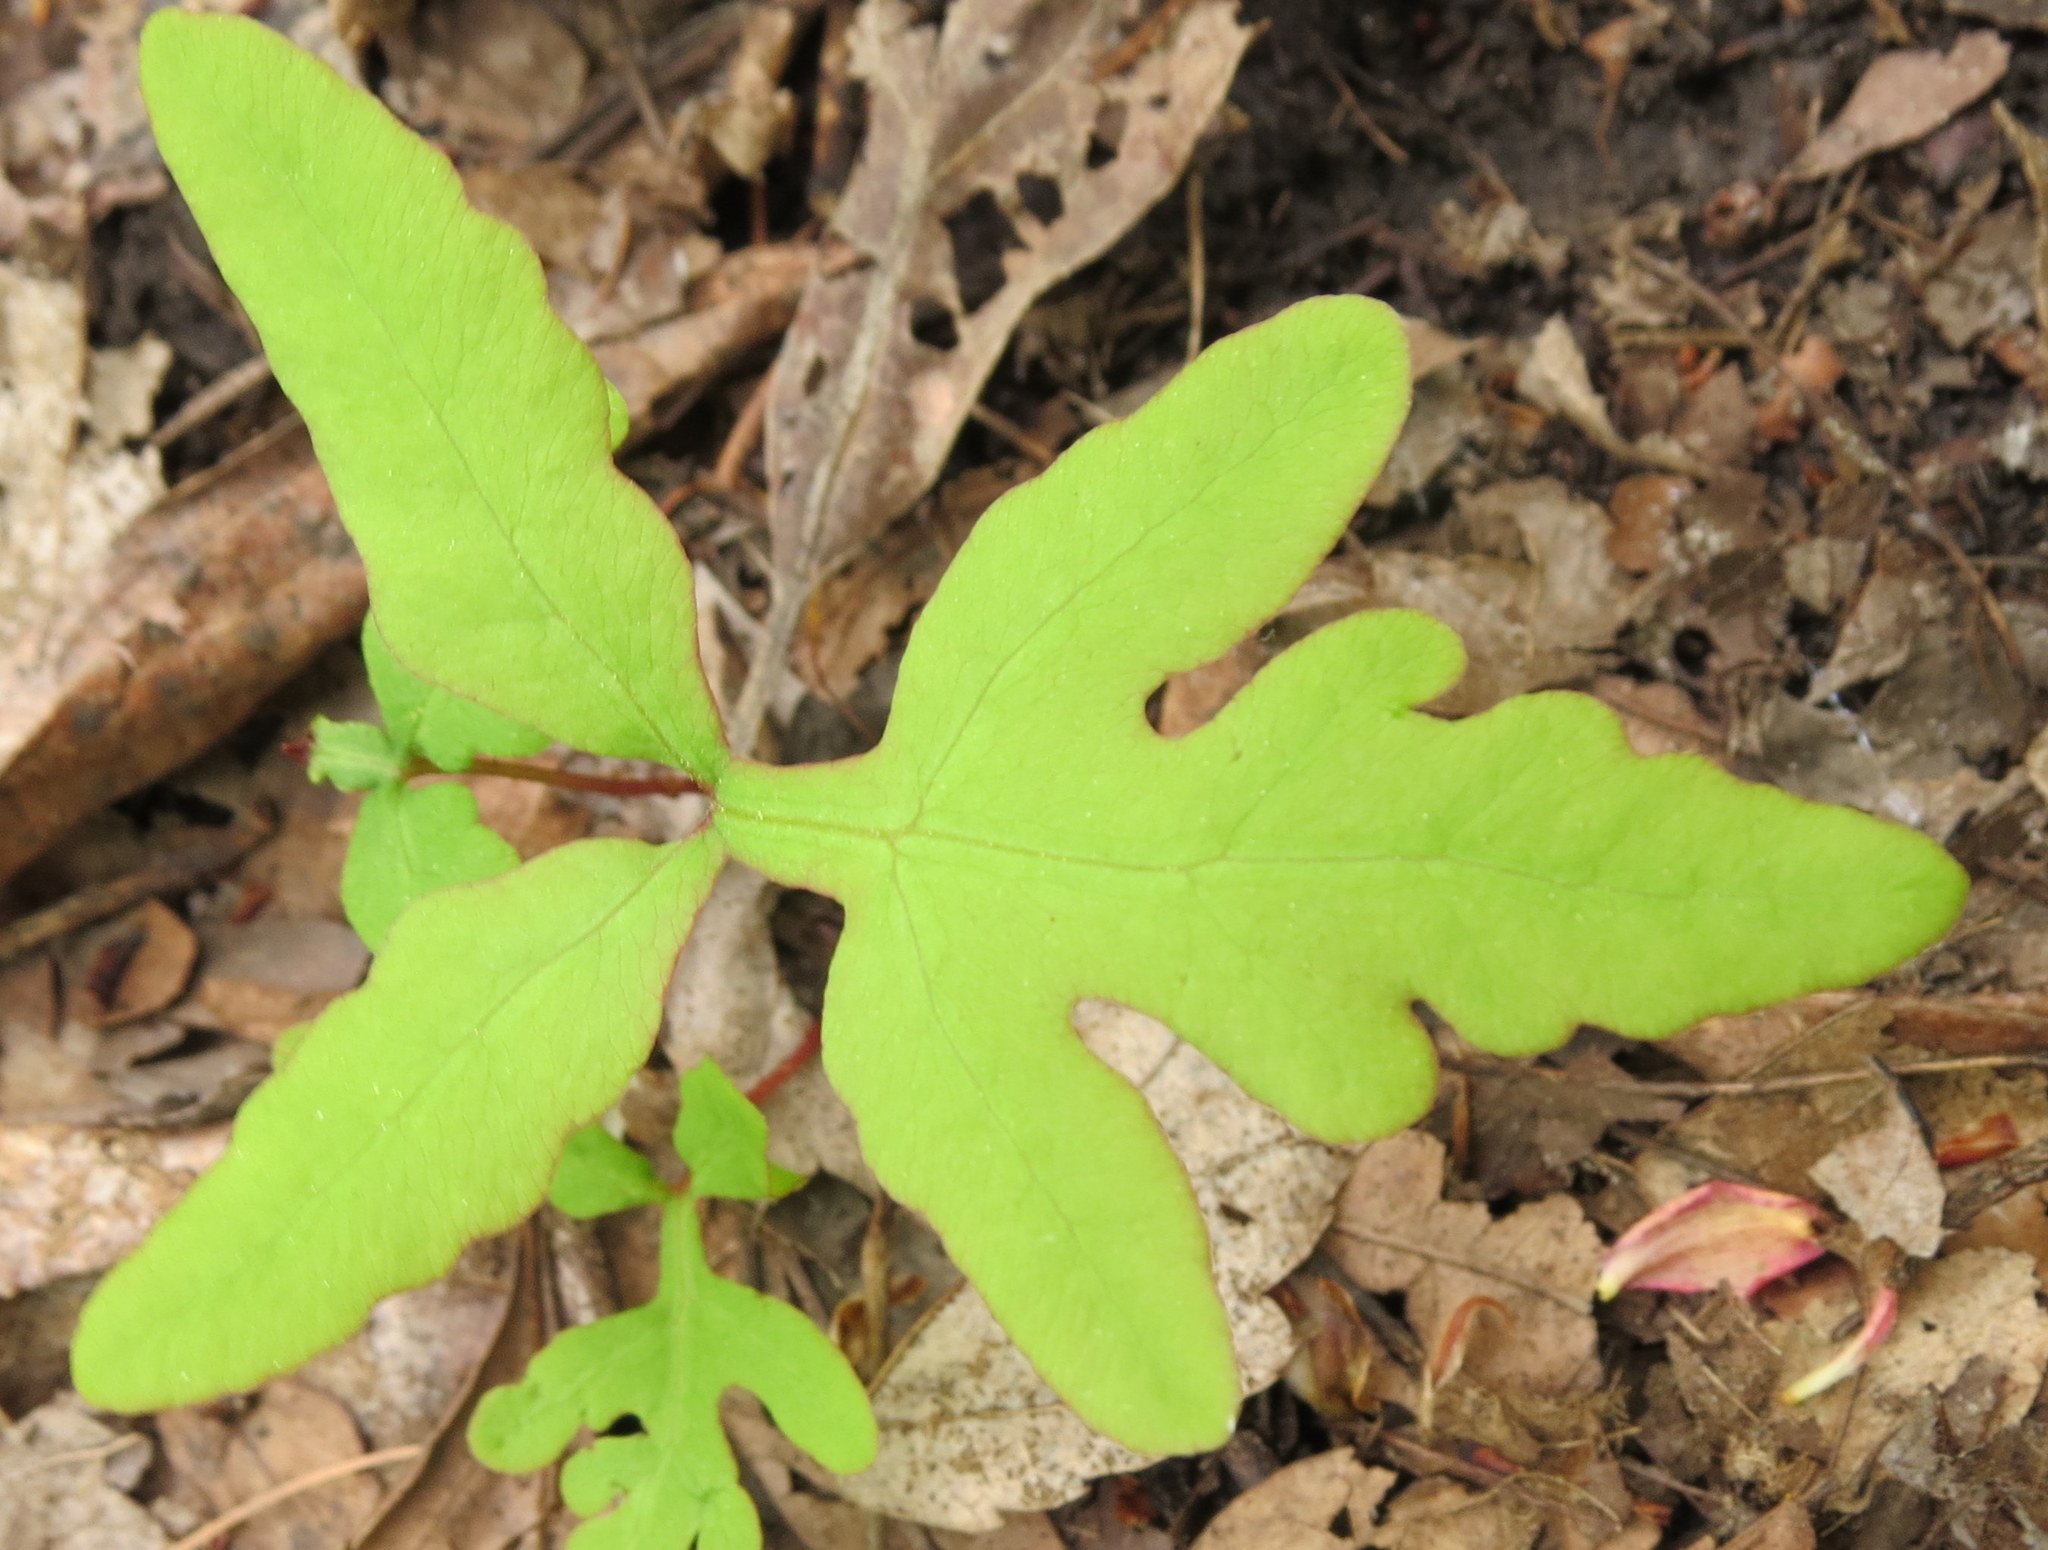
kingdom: Plantae
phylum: Tracheophyta
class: Polypodiopsida
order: Polypodiales
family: Onocleaceae
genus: Onoclea
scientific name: Onoclea sensibilis
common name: Sensitive fern
